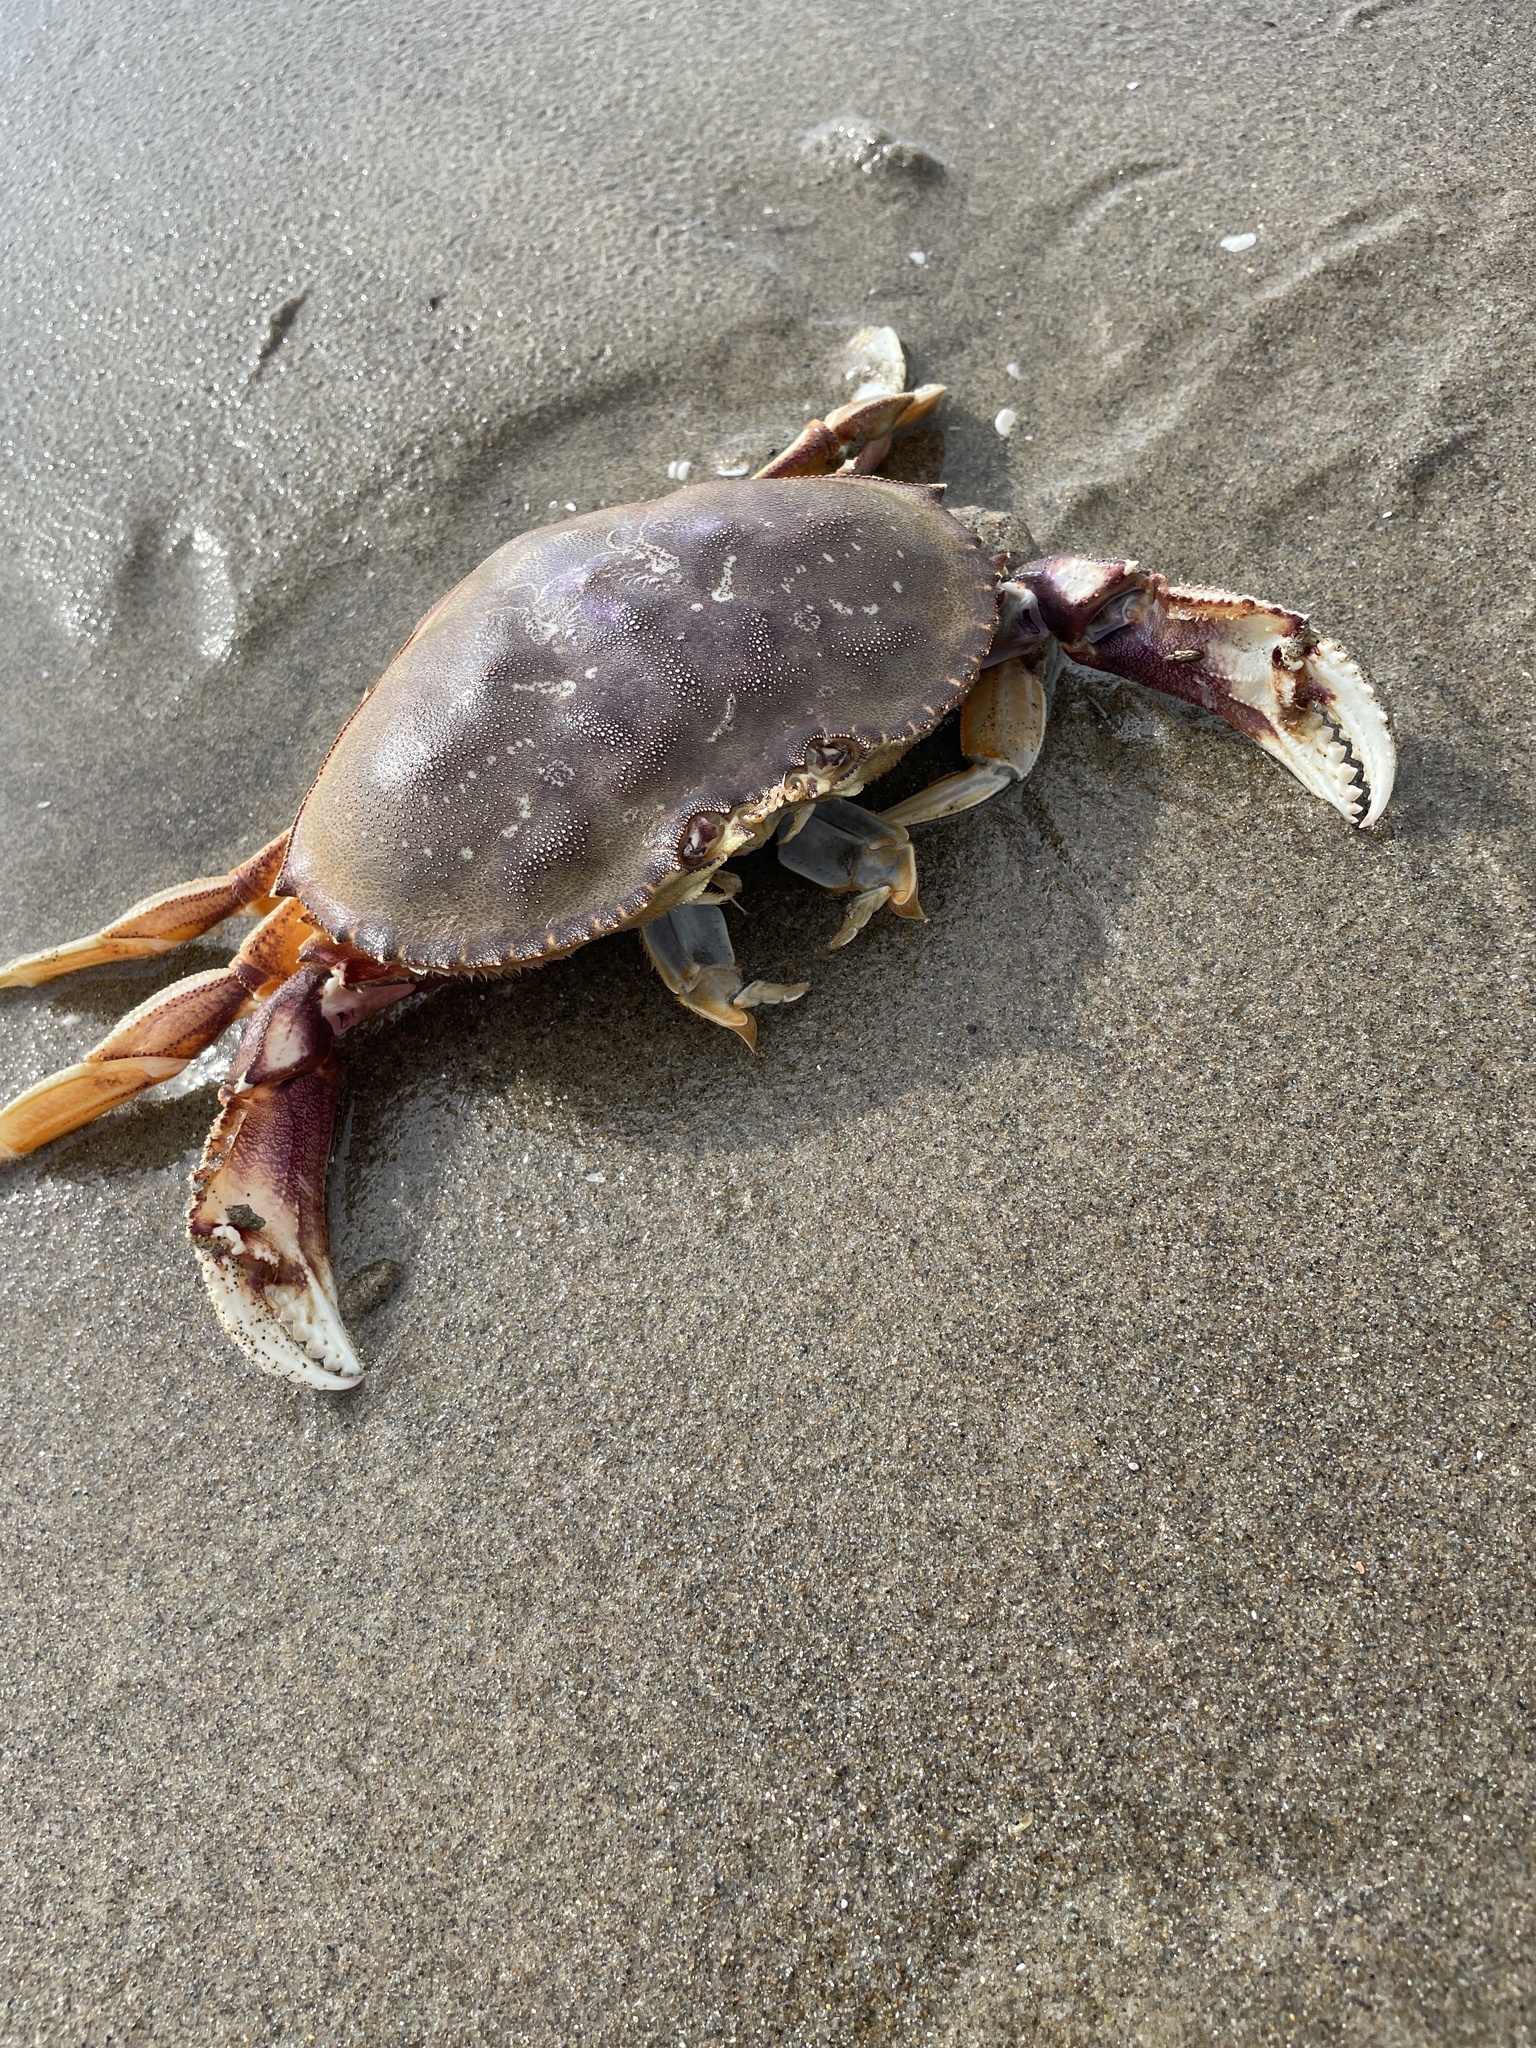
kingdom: Animalia
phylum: Arthropoda
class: Malacostraca
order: Decapoda
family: Cancridae
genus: Metacarcinus
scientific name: Metacarcinus magister
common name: Californian crab
